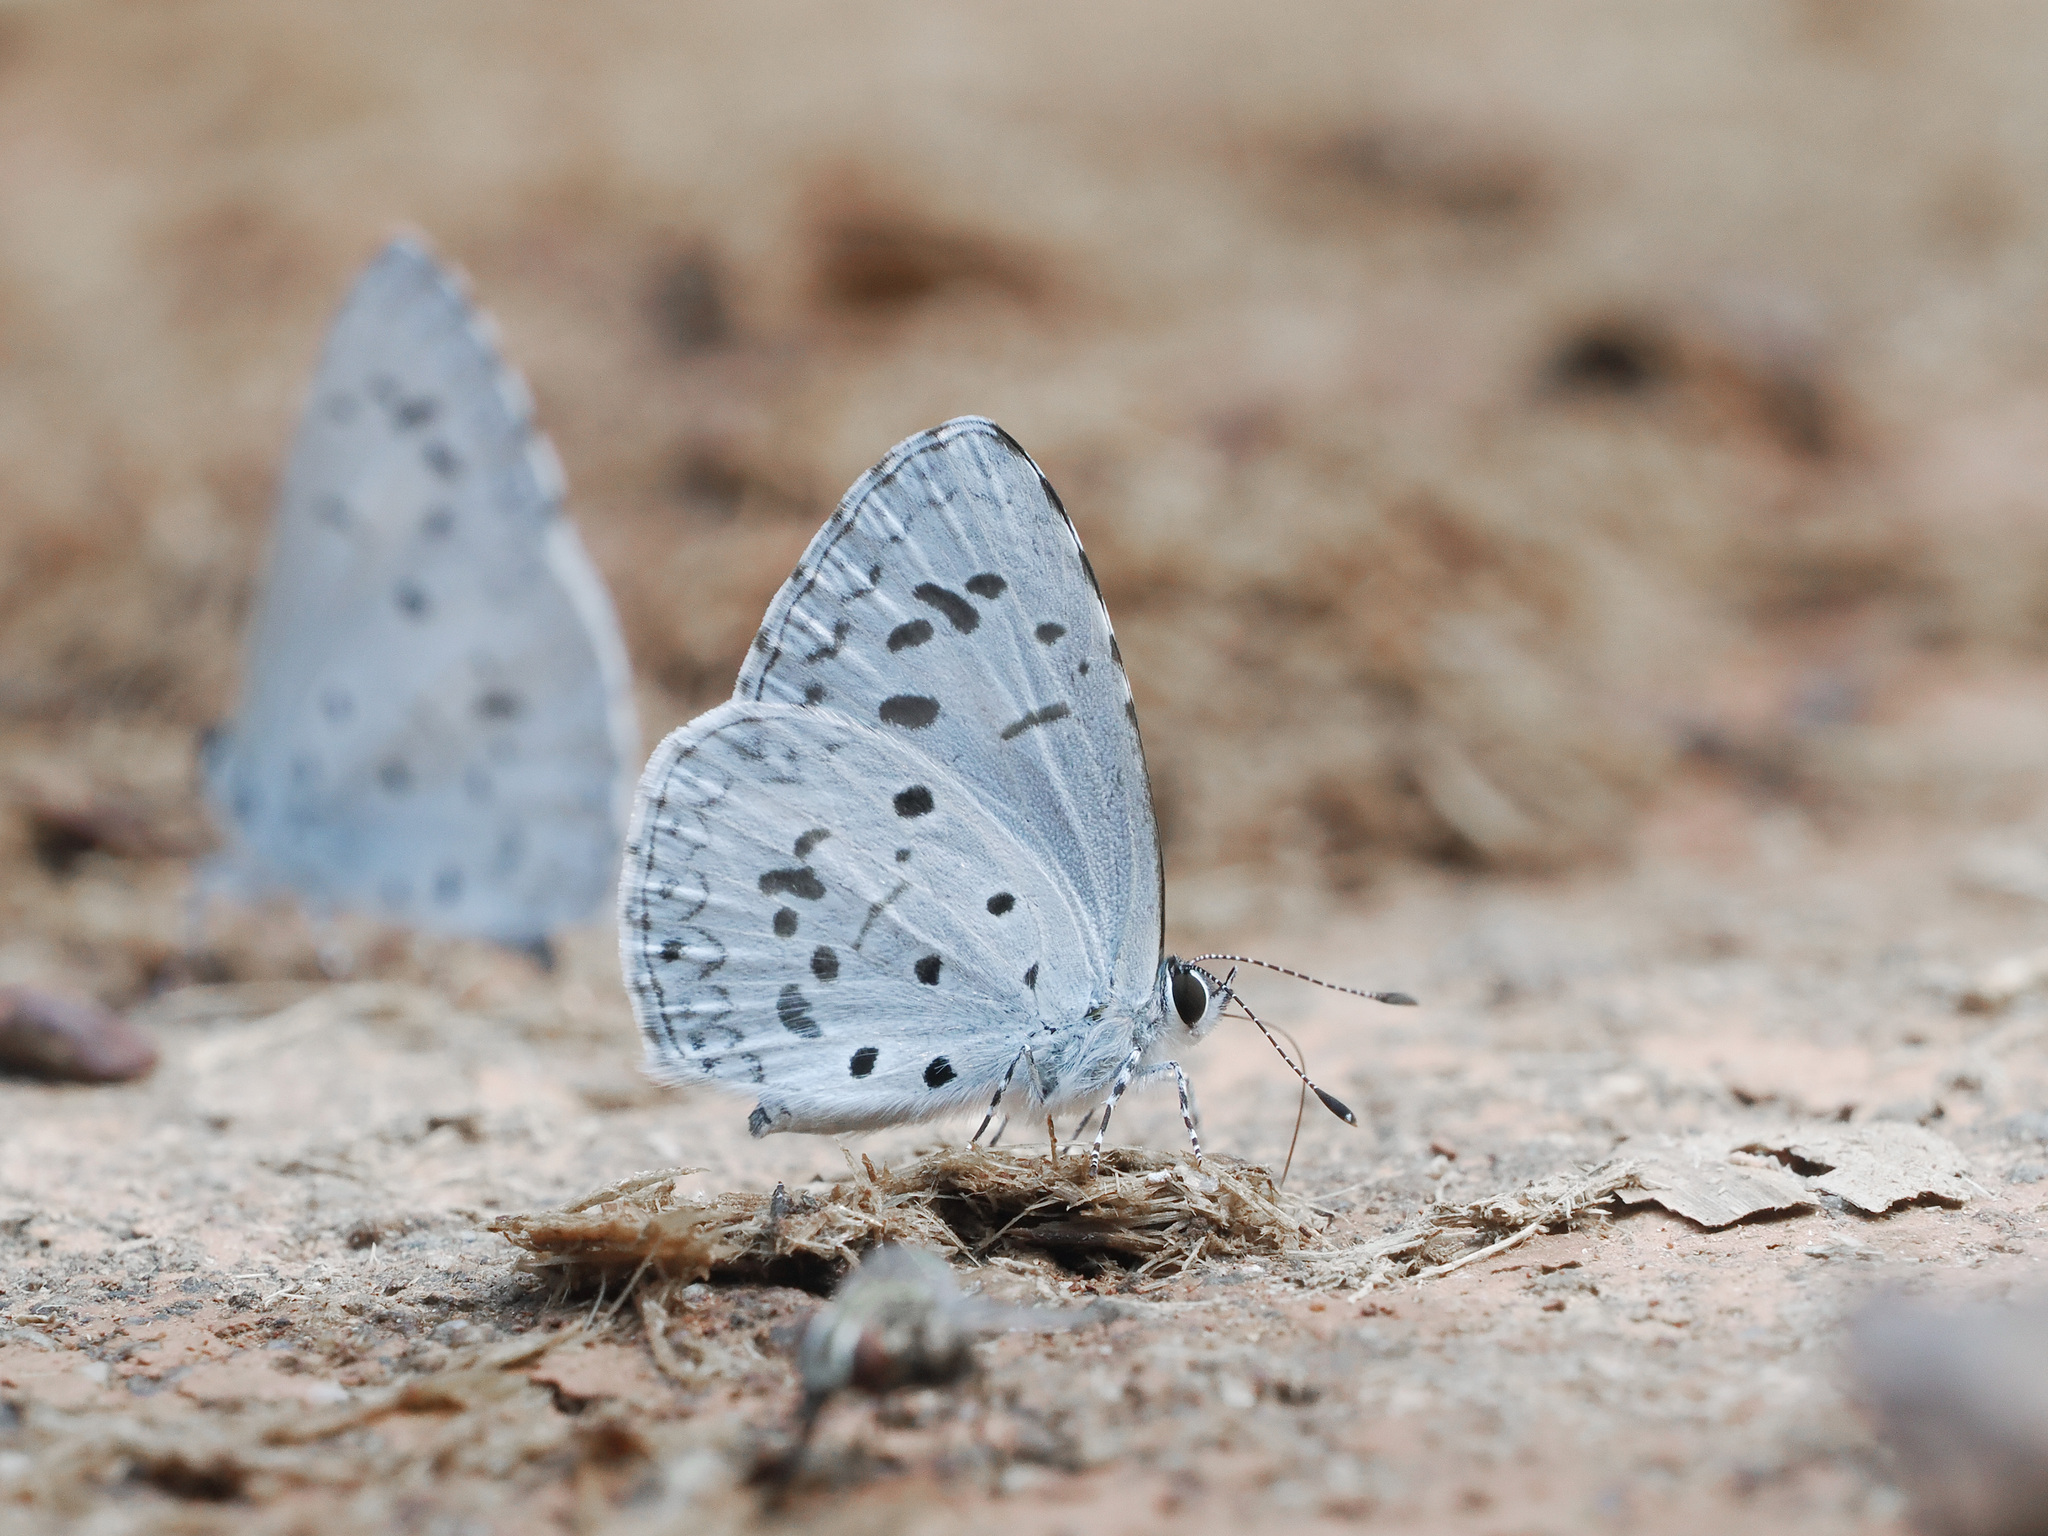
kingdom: Animalia
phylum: Arthropoda
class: Insecta
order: Lepidoptera
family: Lycaenidae
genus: Acytolepis
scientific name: Acytolepis puspa
